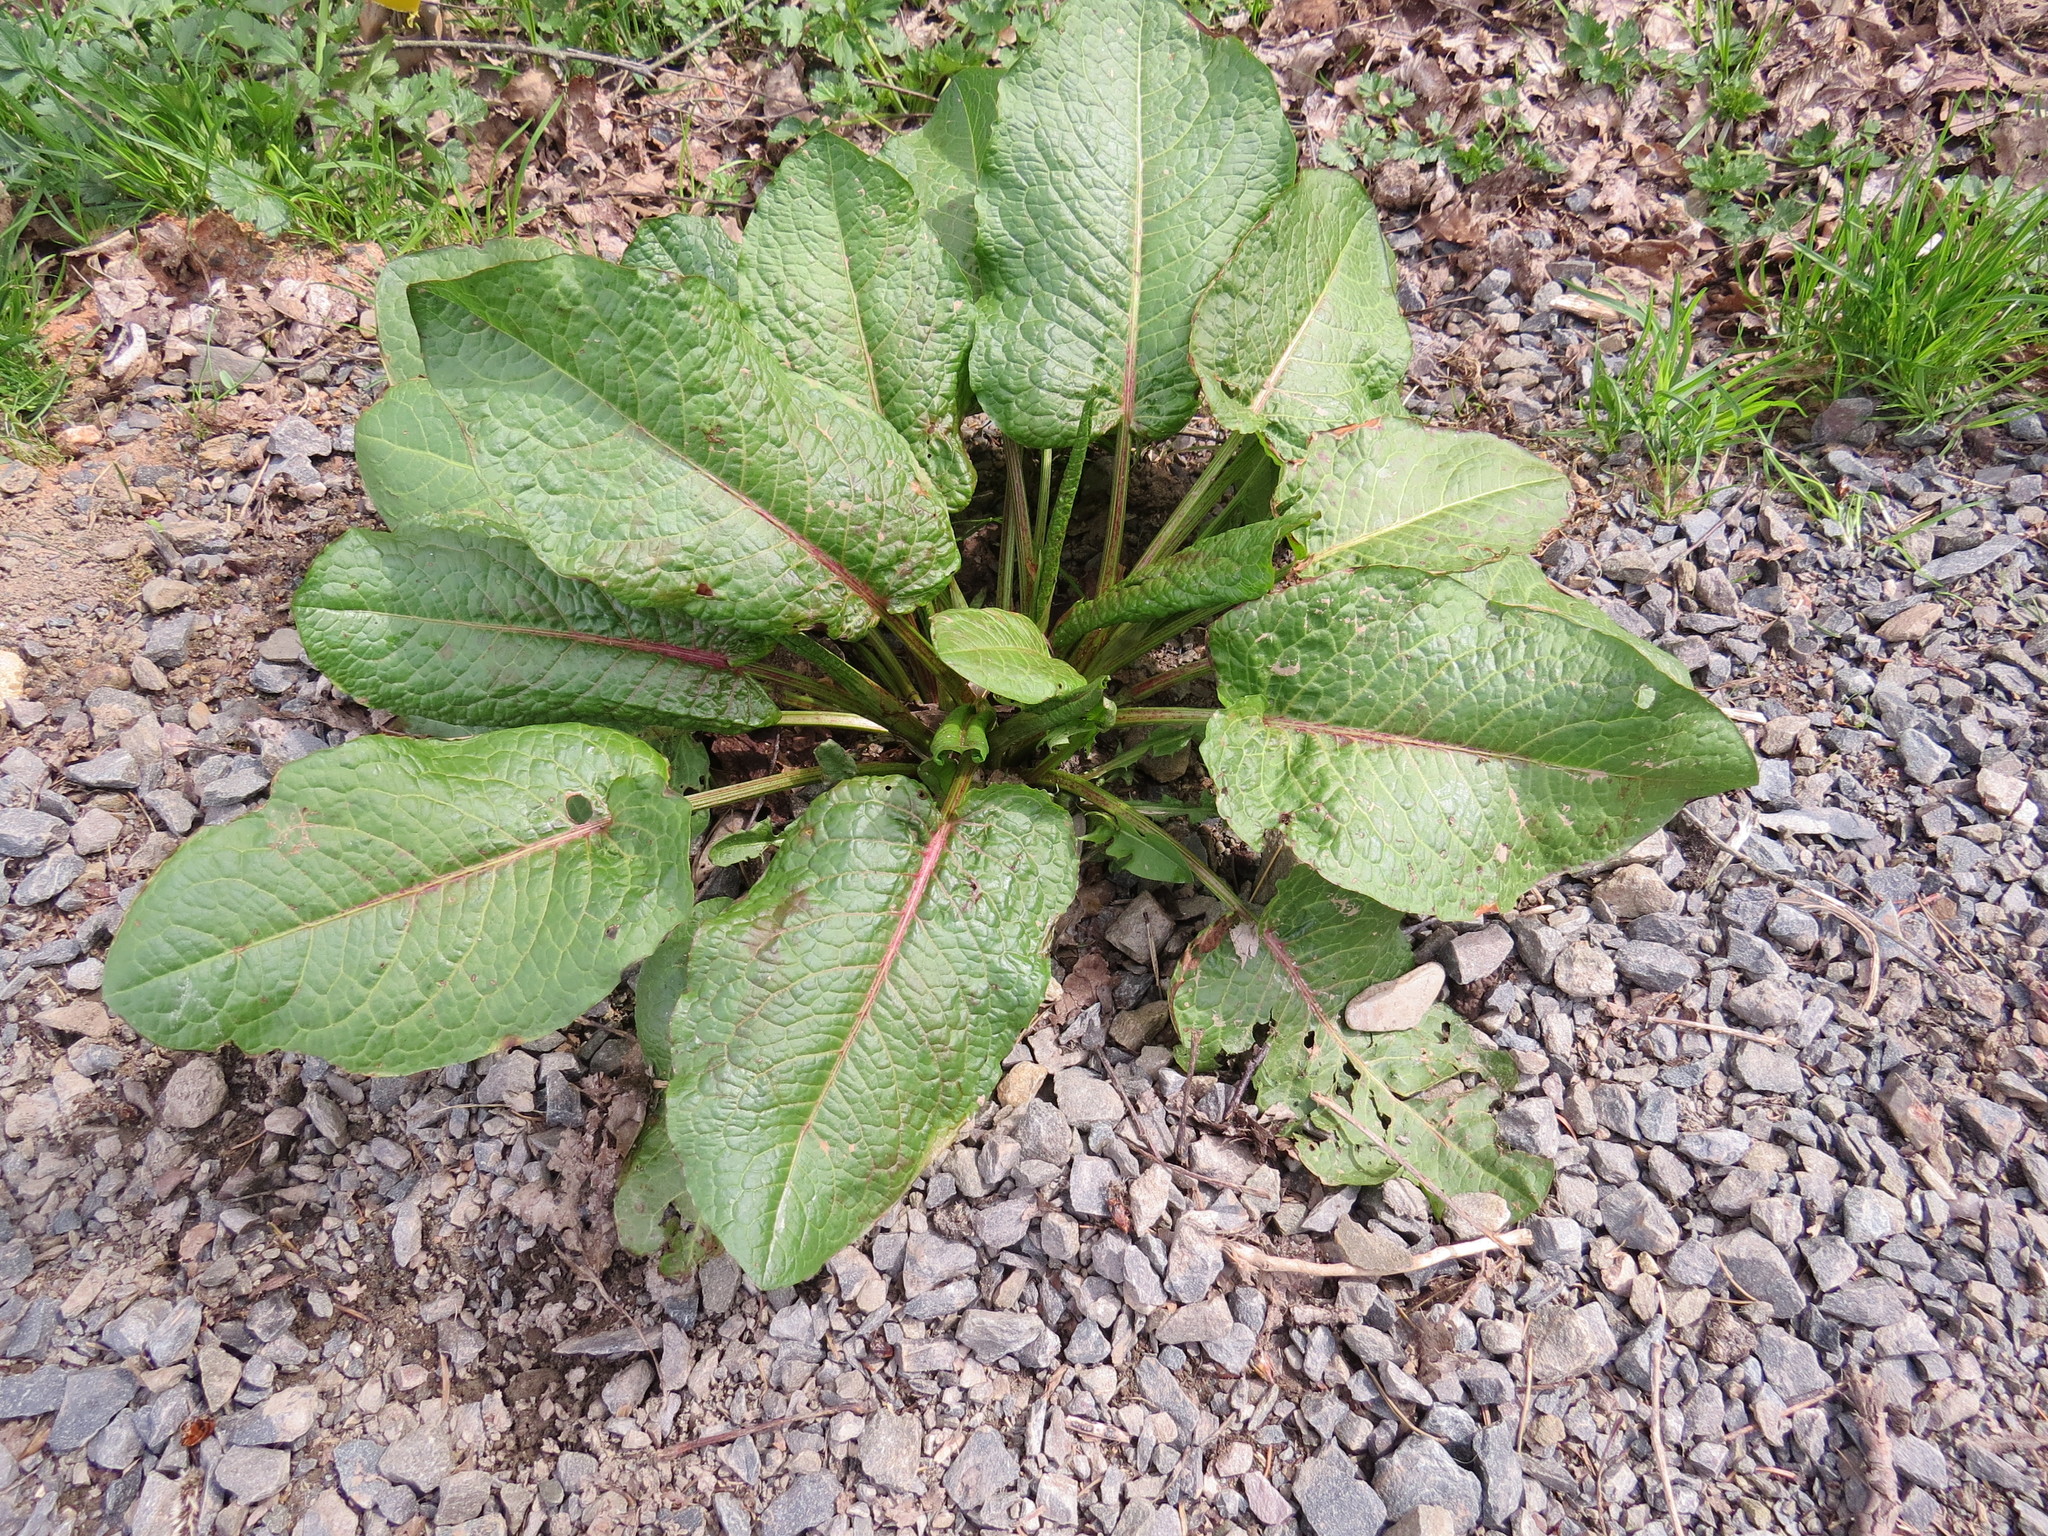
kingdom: Plantae
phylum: Tracheophyta
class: Magnoliopsida
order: Caryophyllales
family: Polygonaceae
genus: Rumex
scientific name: Rumex obtusifolius
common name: Bitter dock
